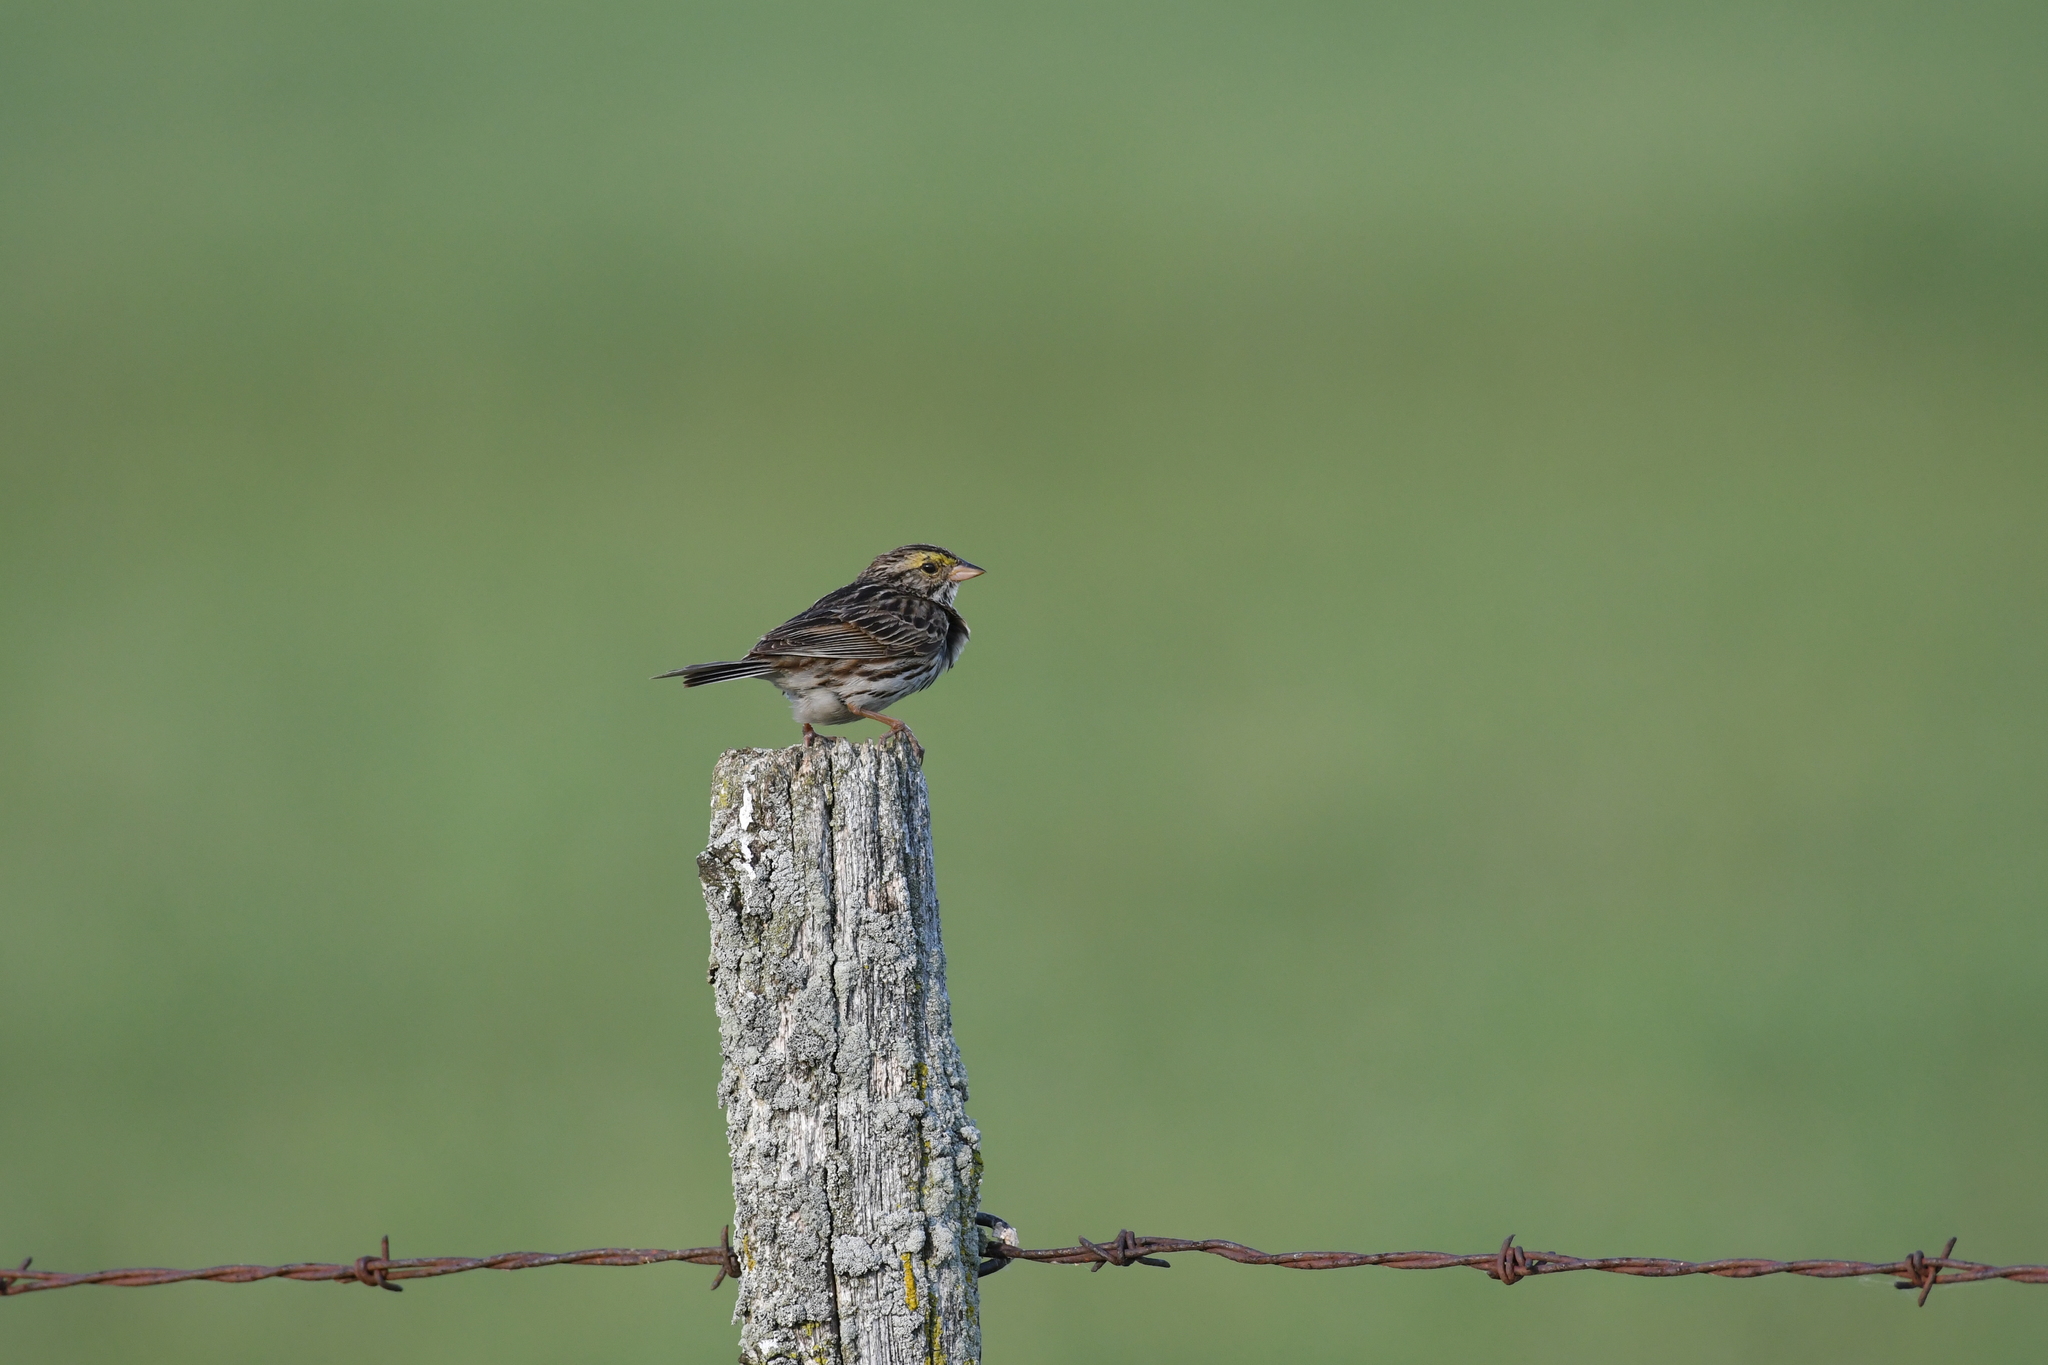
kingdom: Animalia
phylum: Chordata
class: Aves
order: Passeriformes
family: Passerellidae
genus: Passerculus
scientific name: Passerculus sandwichensis
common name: Savannah sparrow
